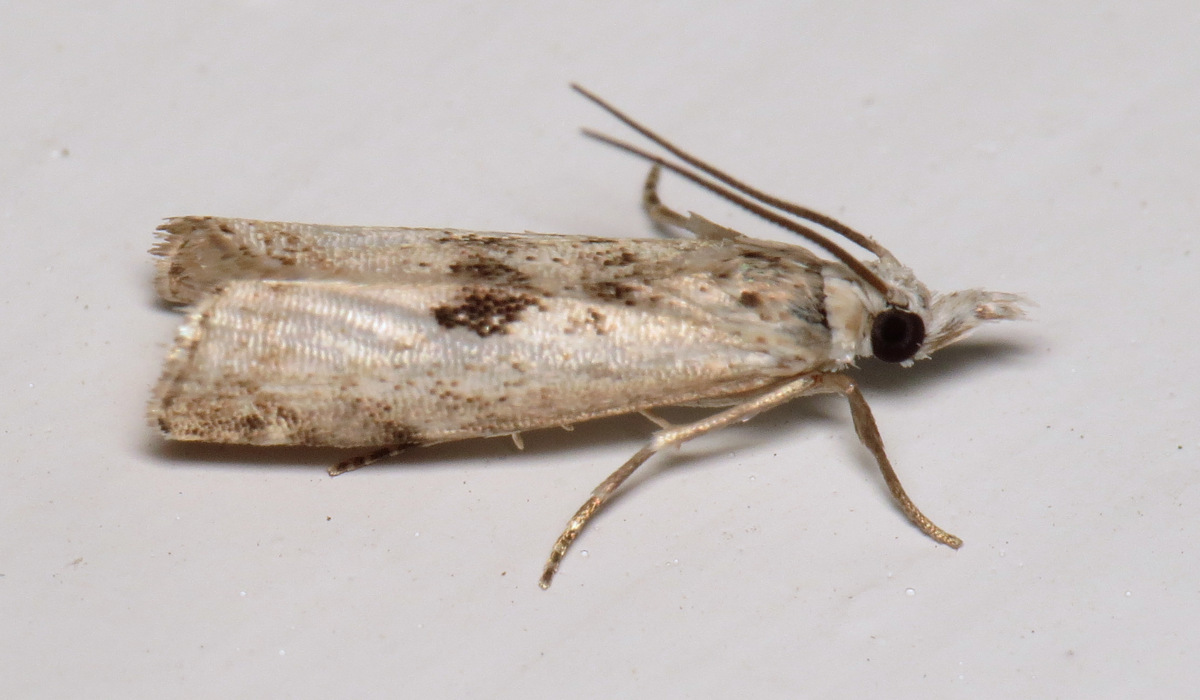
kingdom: Animalia
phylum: Arthropoda
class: Insecta
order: Lepidoptera
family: Crambidae
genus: Microcrambus
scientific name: Microcrambus immunellus
